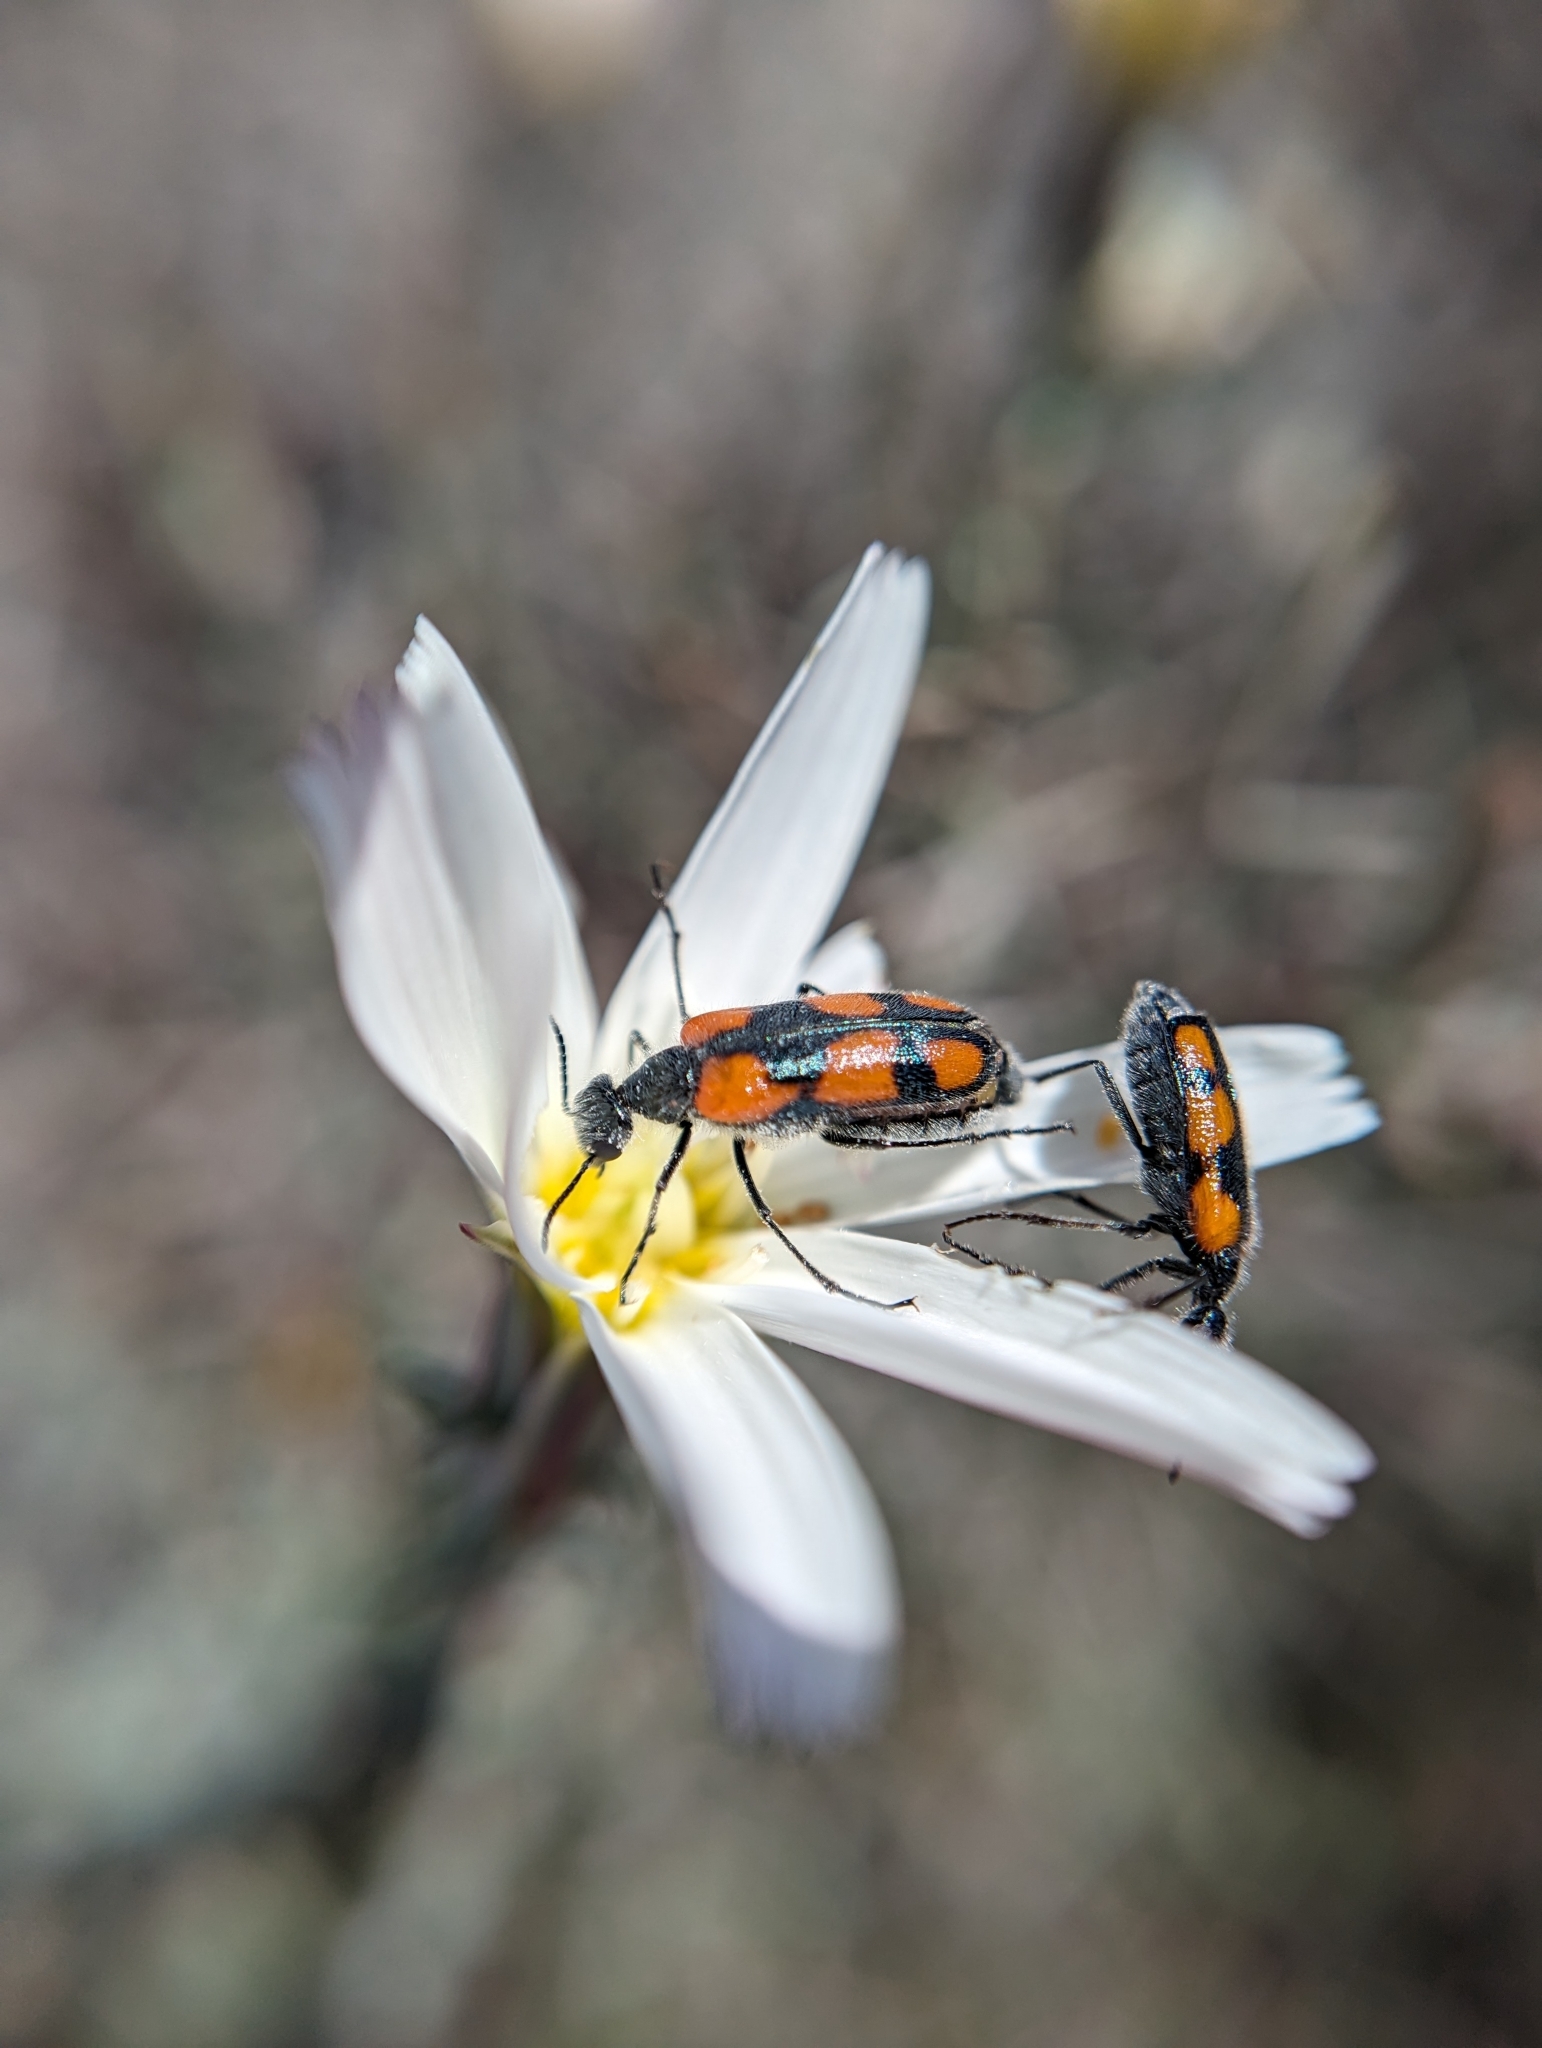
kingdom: Animalia
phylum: Arthropoda
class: Insecta
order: Coleoptera
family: Meloidae
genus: Eupompha
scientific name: Eupompha elegans
